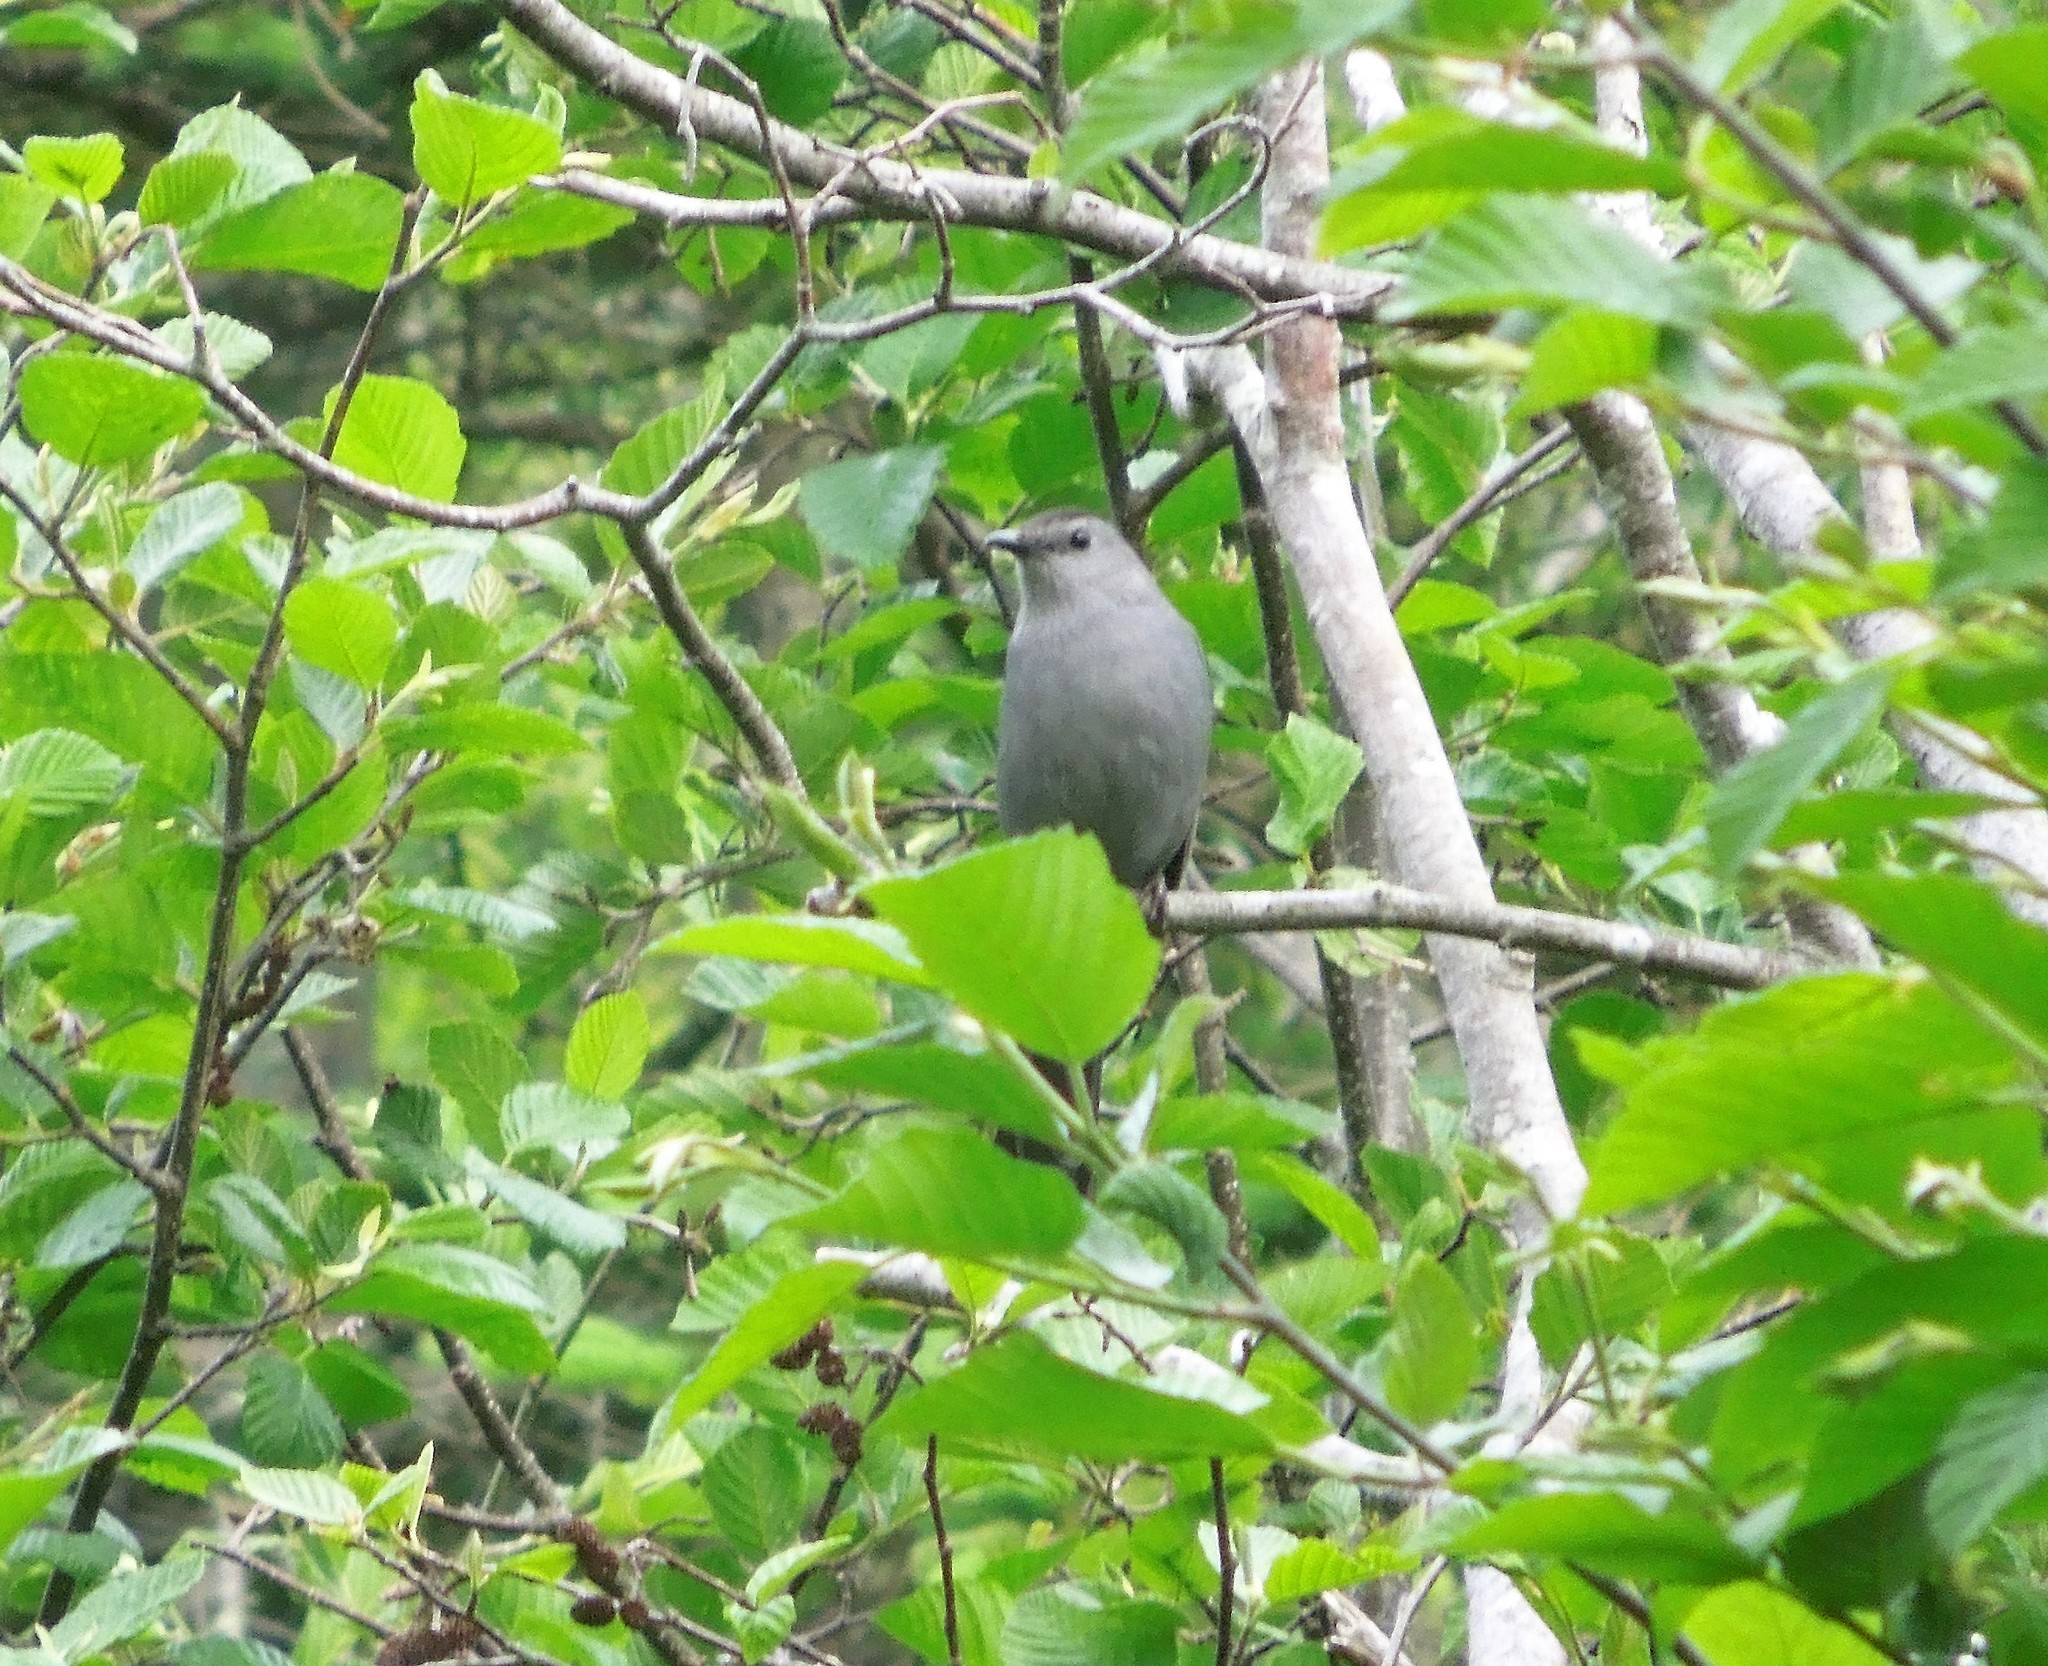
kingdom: Animalia
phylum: Chordata
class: Aves
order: Passeriformes
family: Mimidae
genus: Dumetella
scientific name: Dumetella carolinensis
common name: Gray catbird
